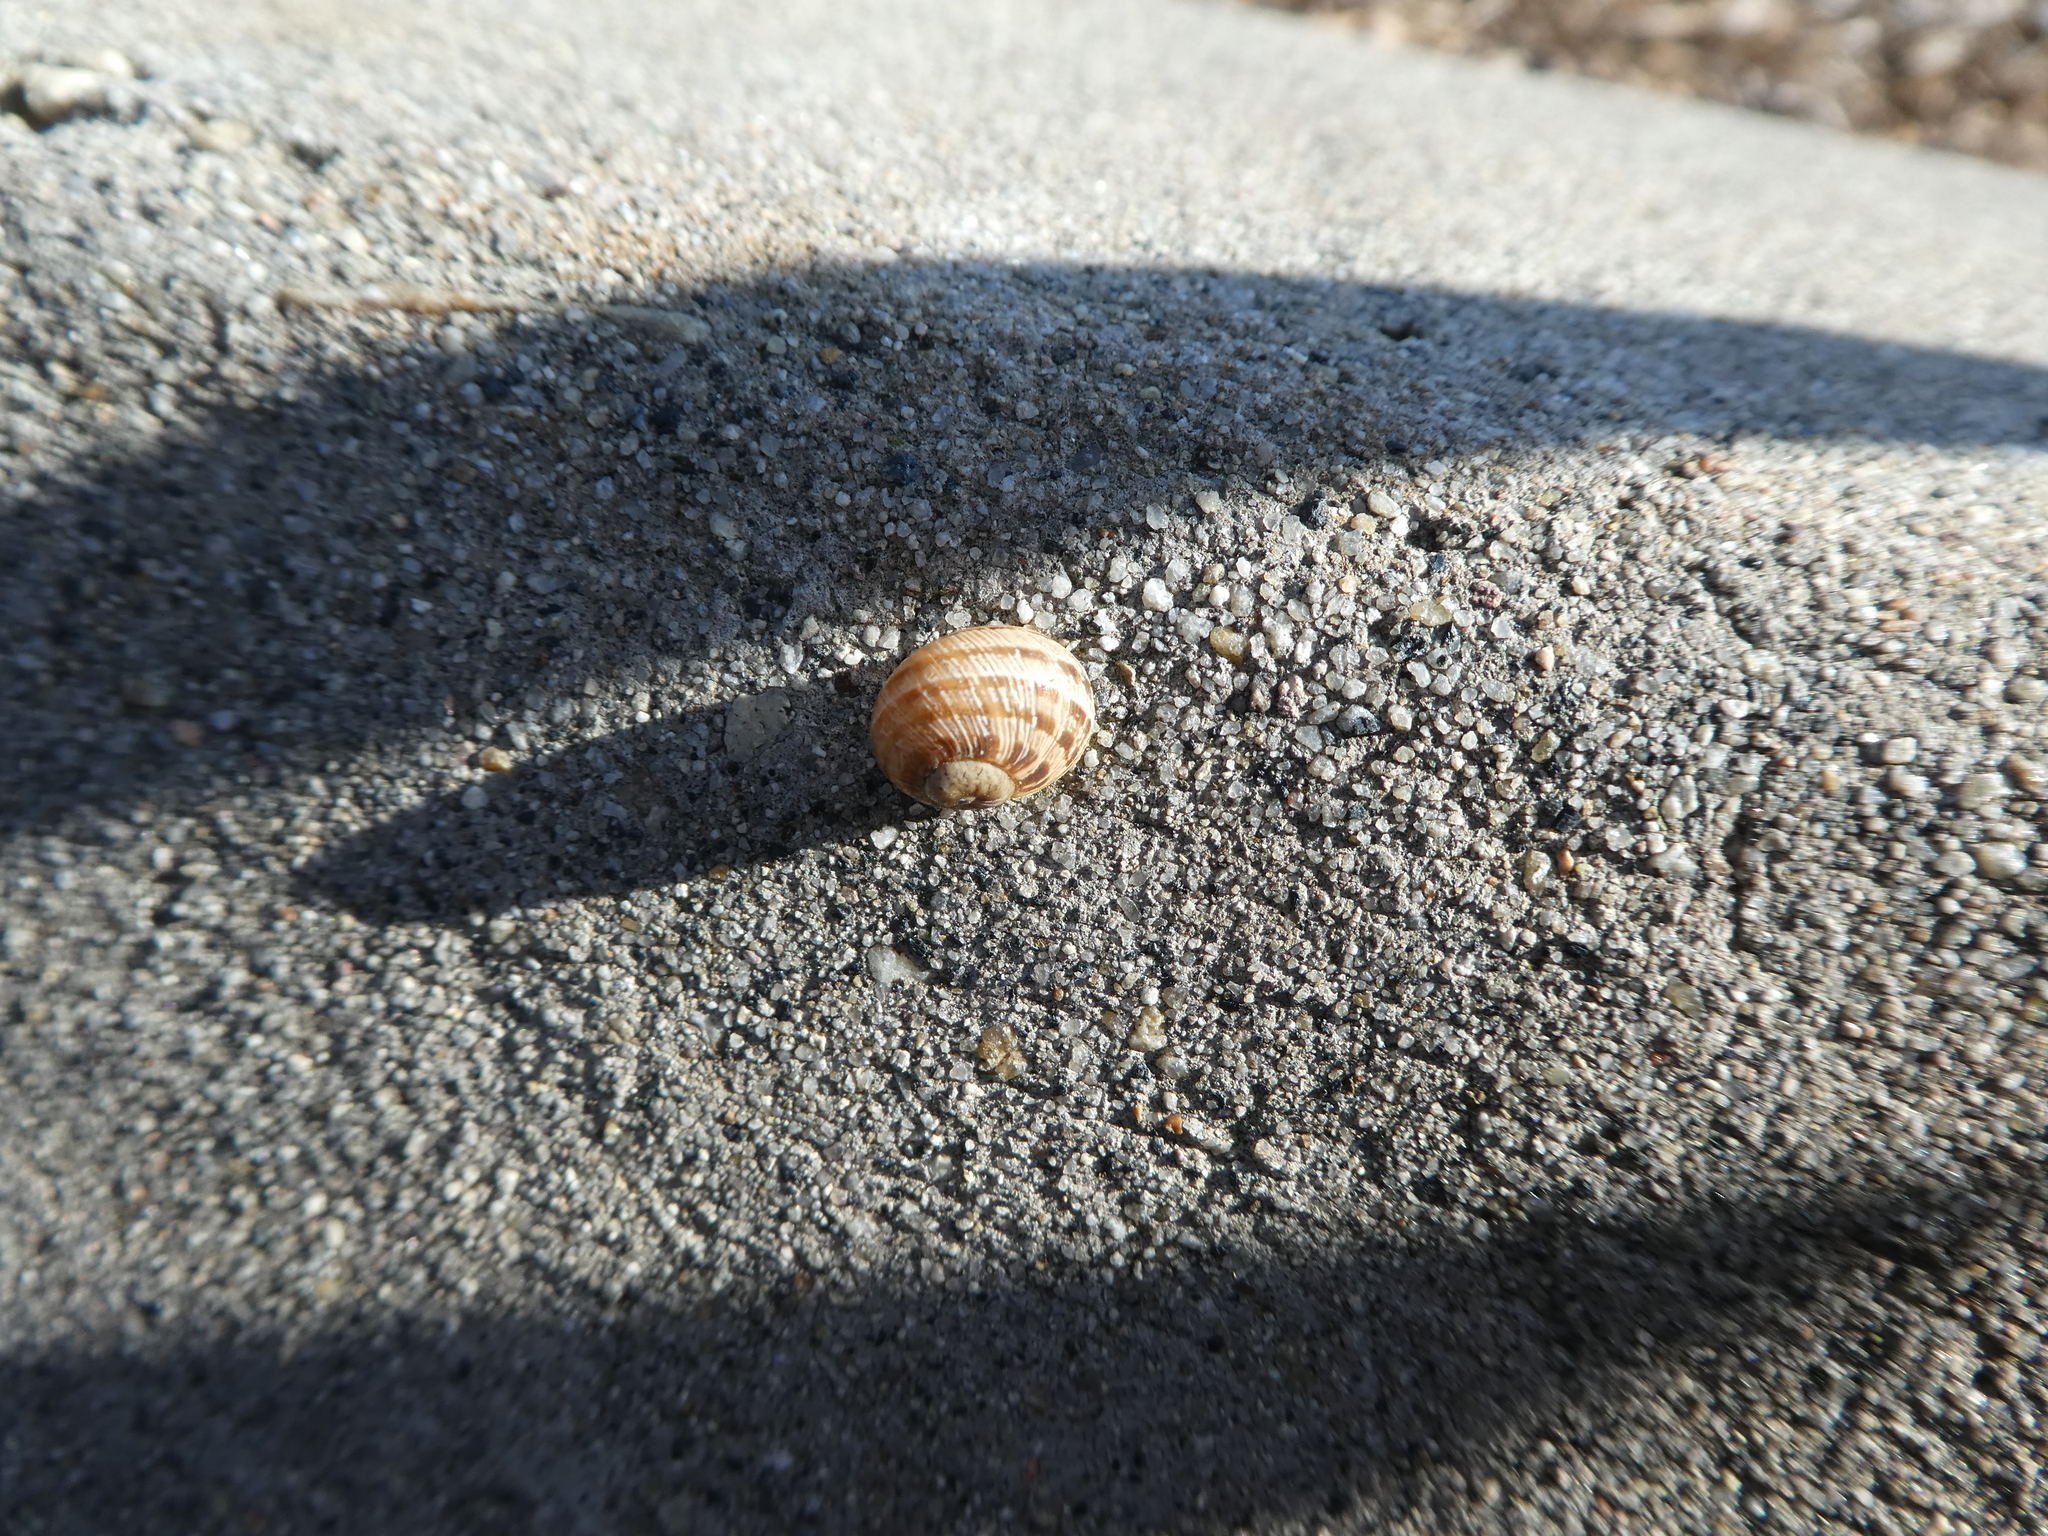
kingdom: Animalia
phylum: Mollusca
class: Gastropoda
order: Stylommatophora
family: Helicidae
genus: Cornu
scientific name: Cornu aspersum
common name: Brown garden snail
